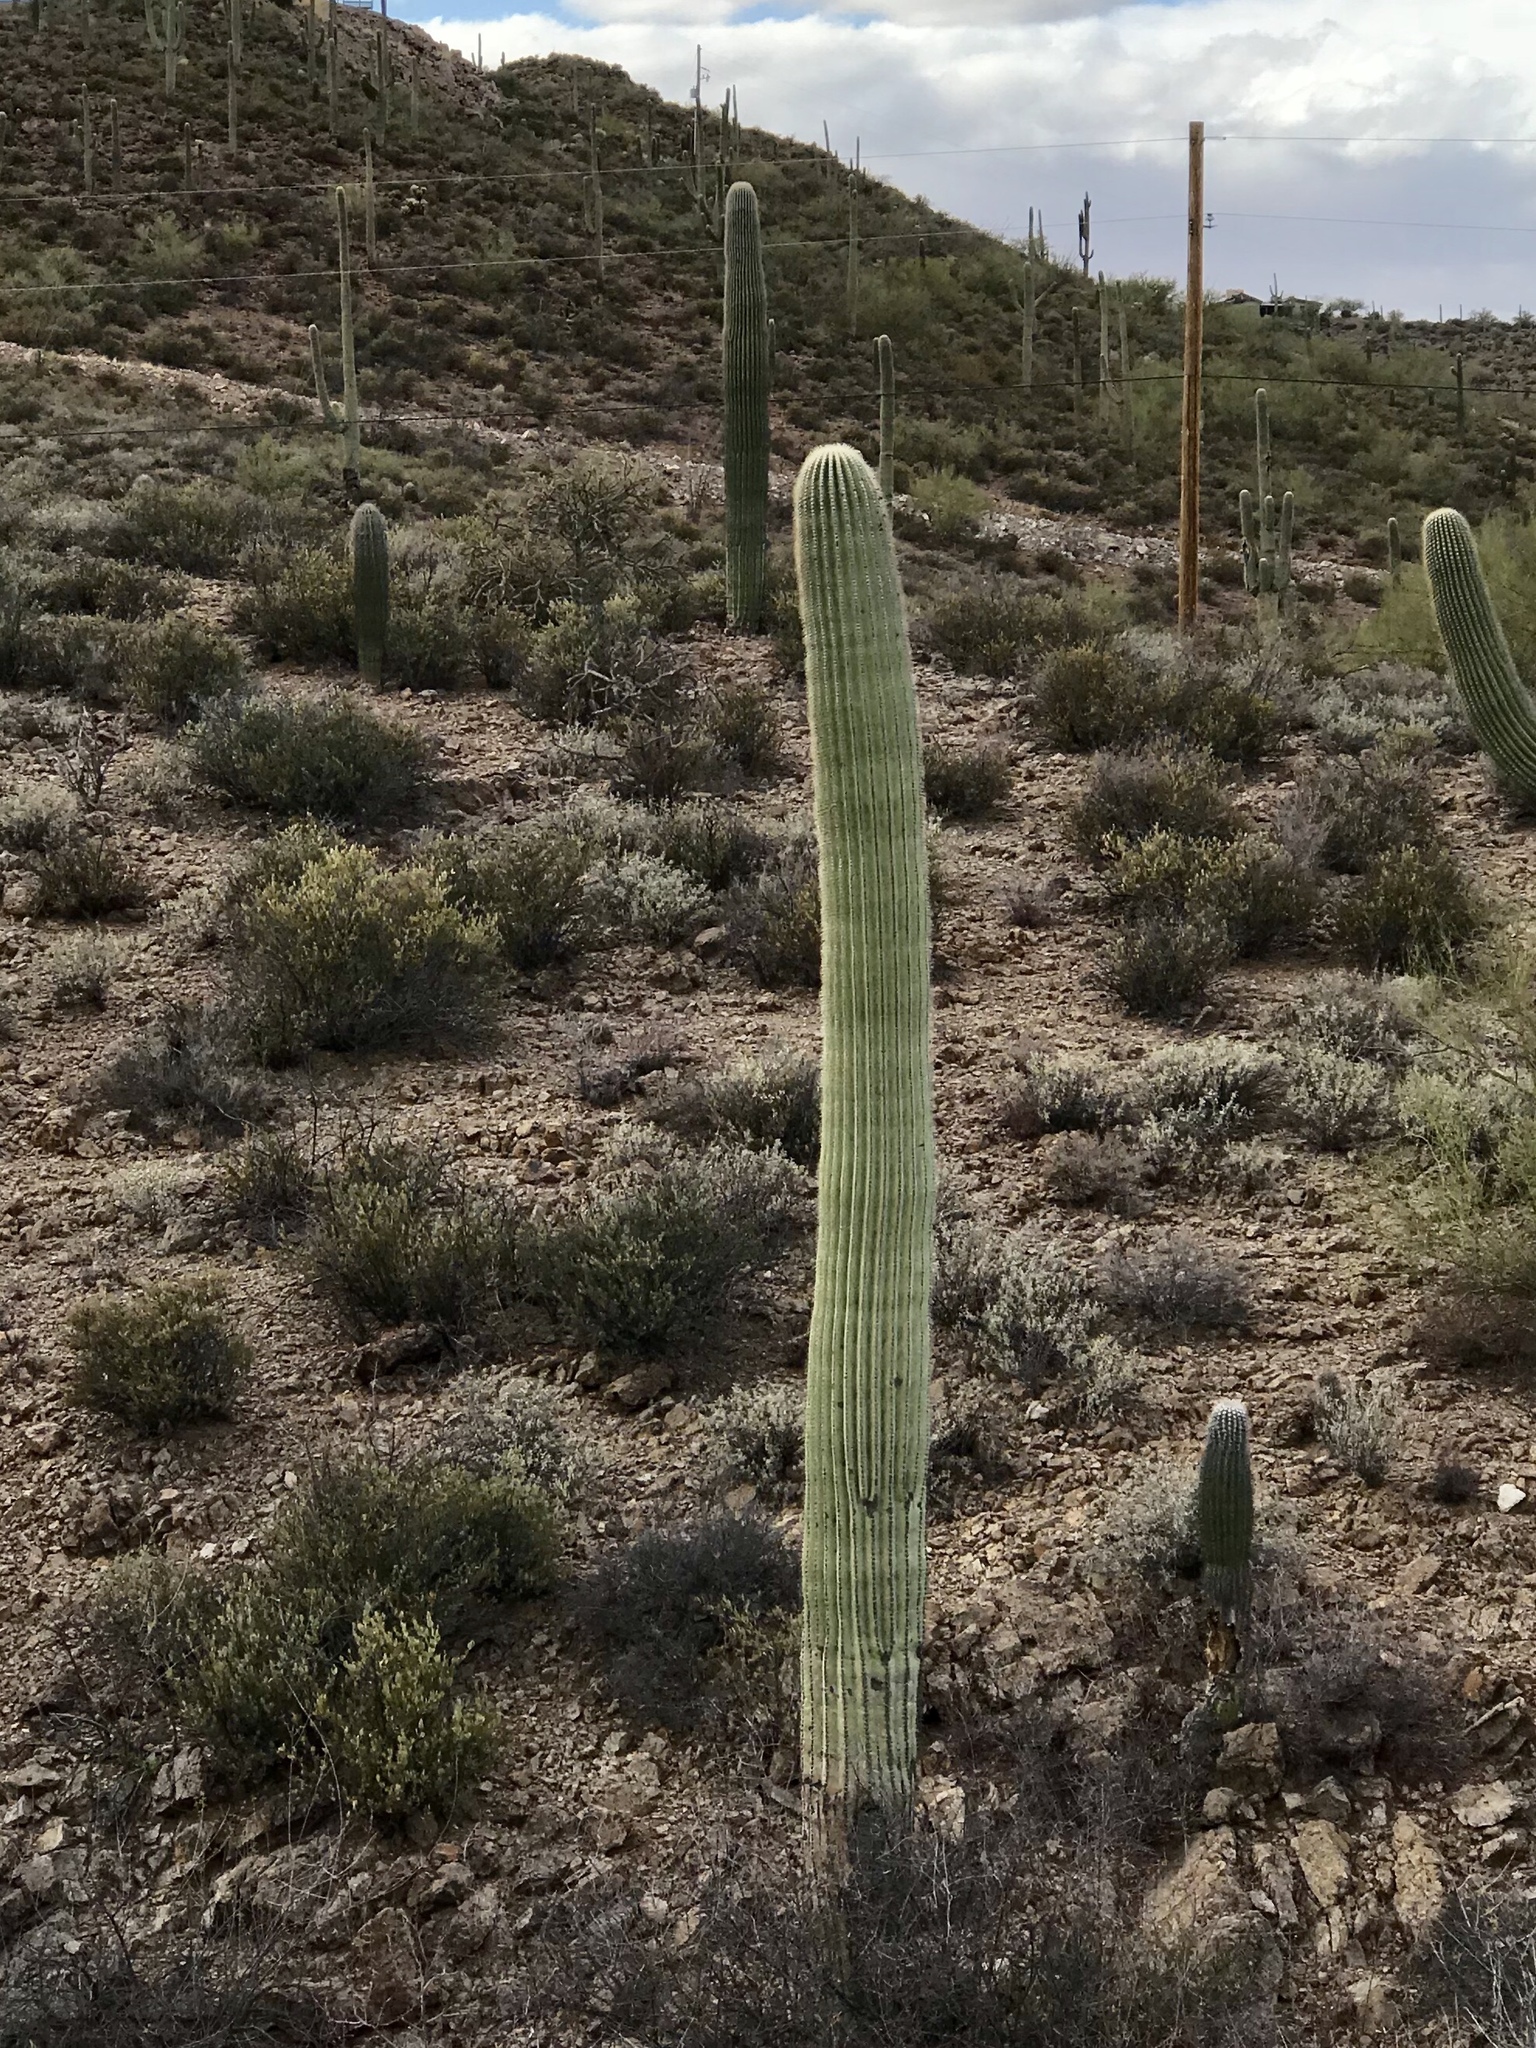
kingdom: Plantae
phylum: Tracheophyta
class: Magnoliopsida
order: Caryophyllales
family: Cactaceae
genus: Carnegiea
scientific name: Carnegiea gigantea
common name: Saguaro
